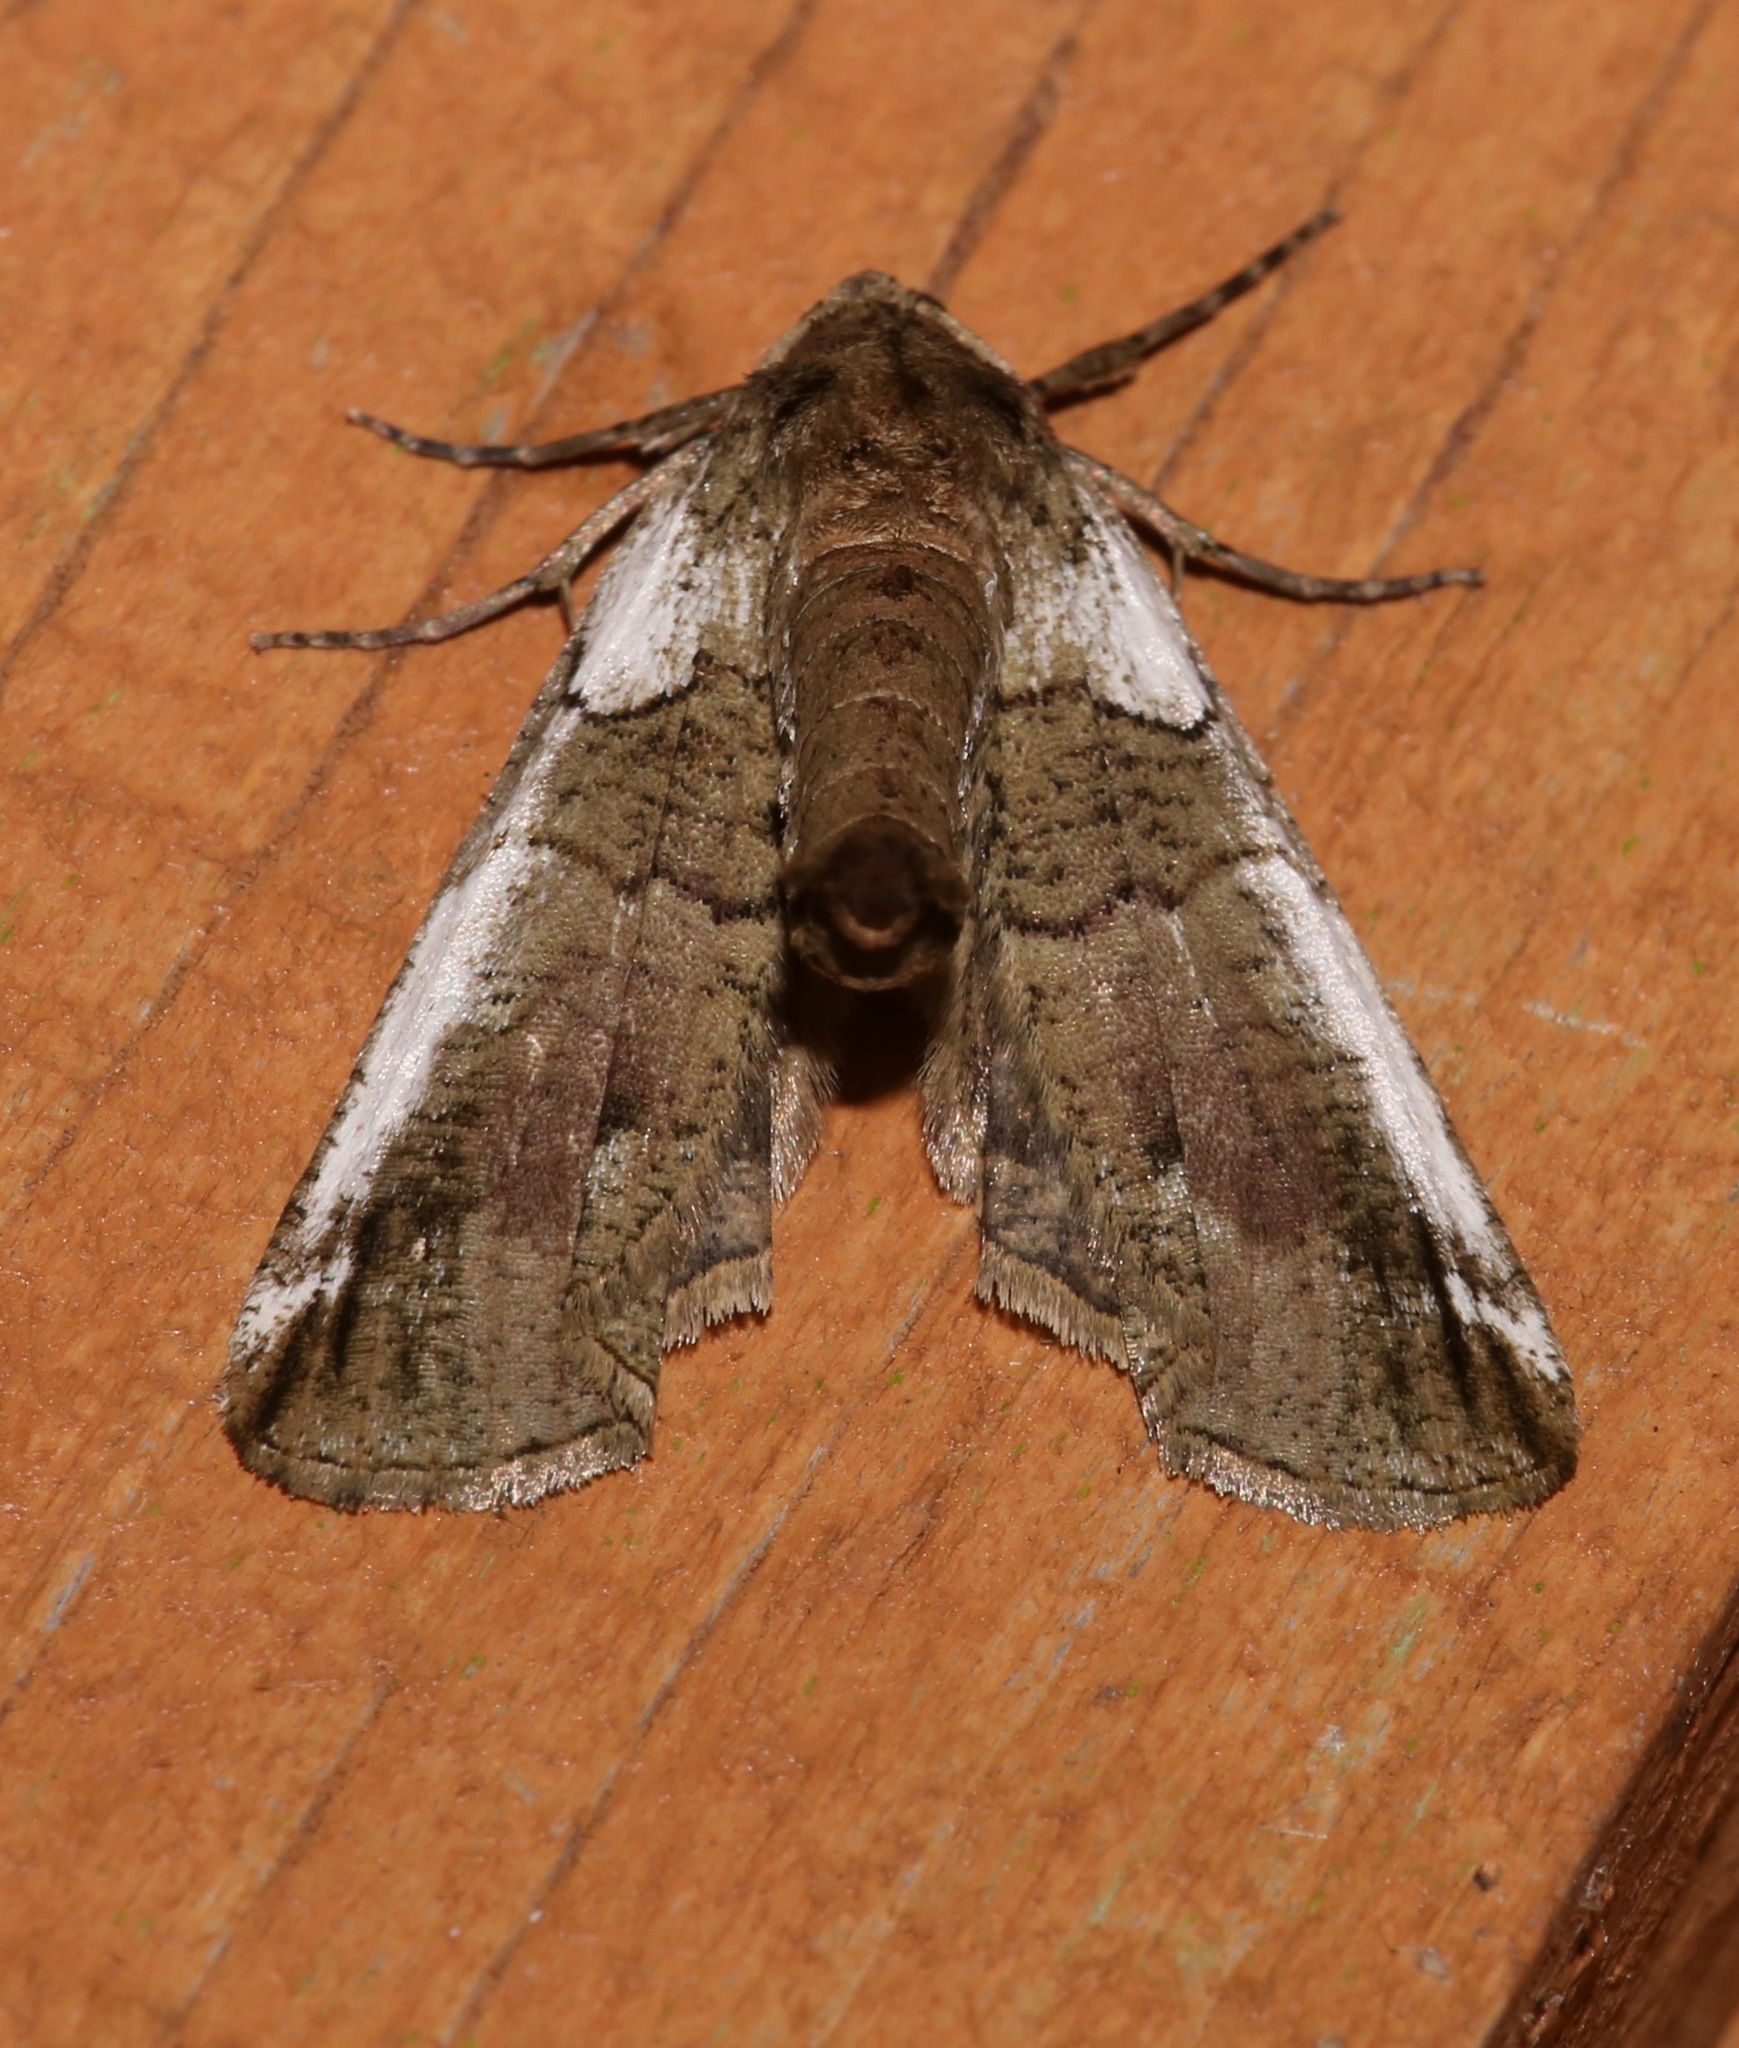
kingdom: Animalia
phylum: Arthropoda
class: Insecta
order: Lepidoptera
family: Geometridae
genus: Ceratonyx
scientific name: Ceratonyx satanaria
